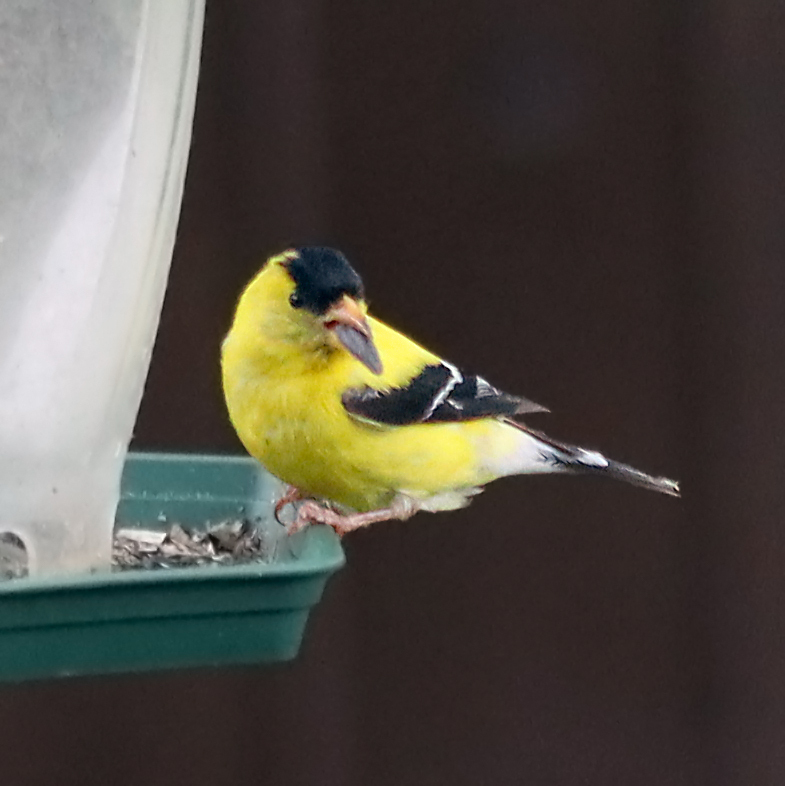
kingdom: Animalia
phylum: Chordata
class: Aves
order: Passeriformes
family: Fringillidae
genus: Spinus
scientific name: Spinus tristis
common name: American goldfinch
